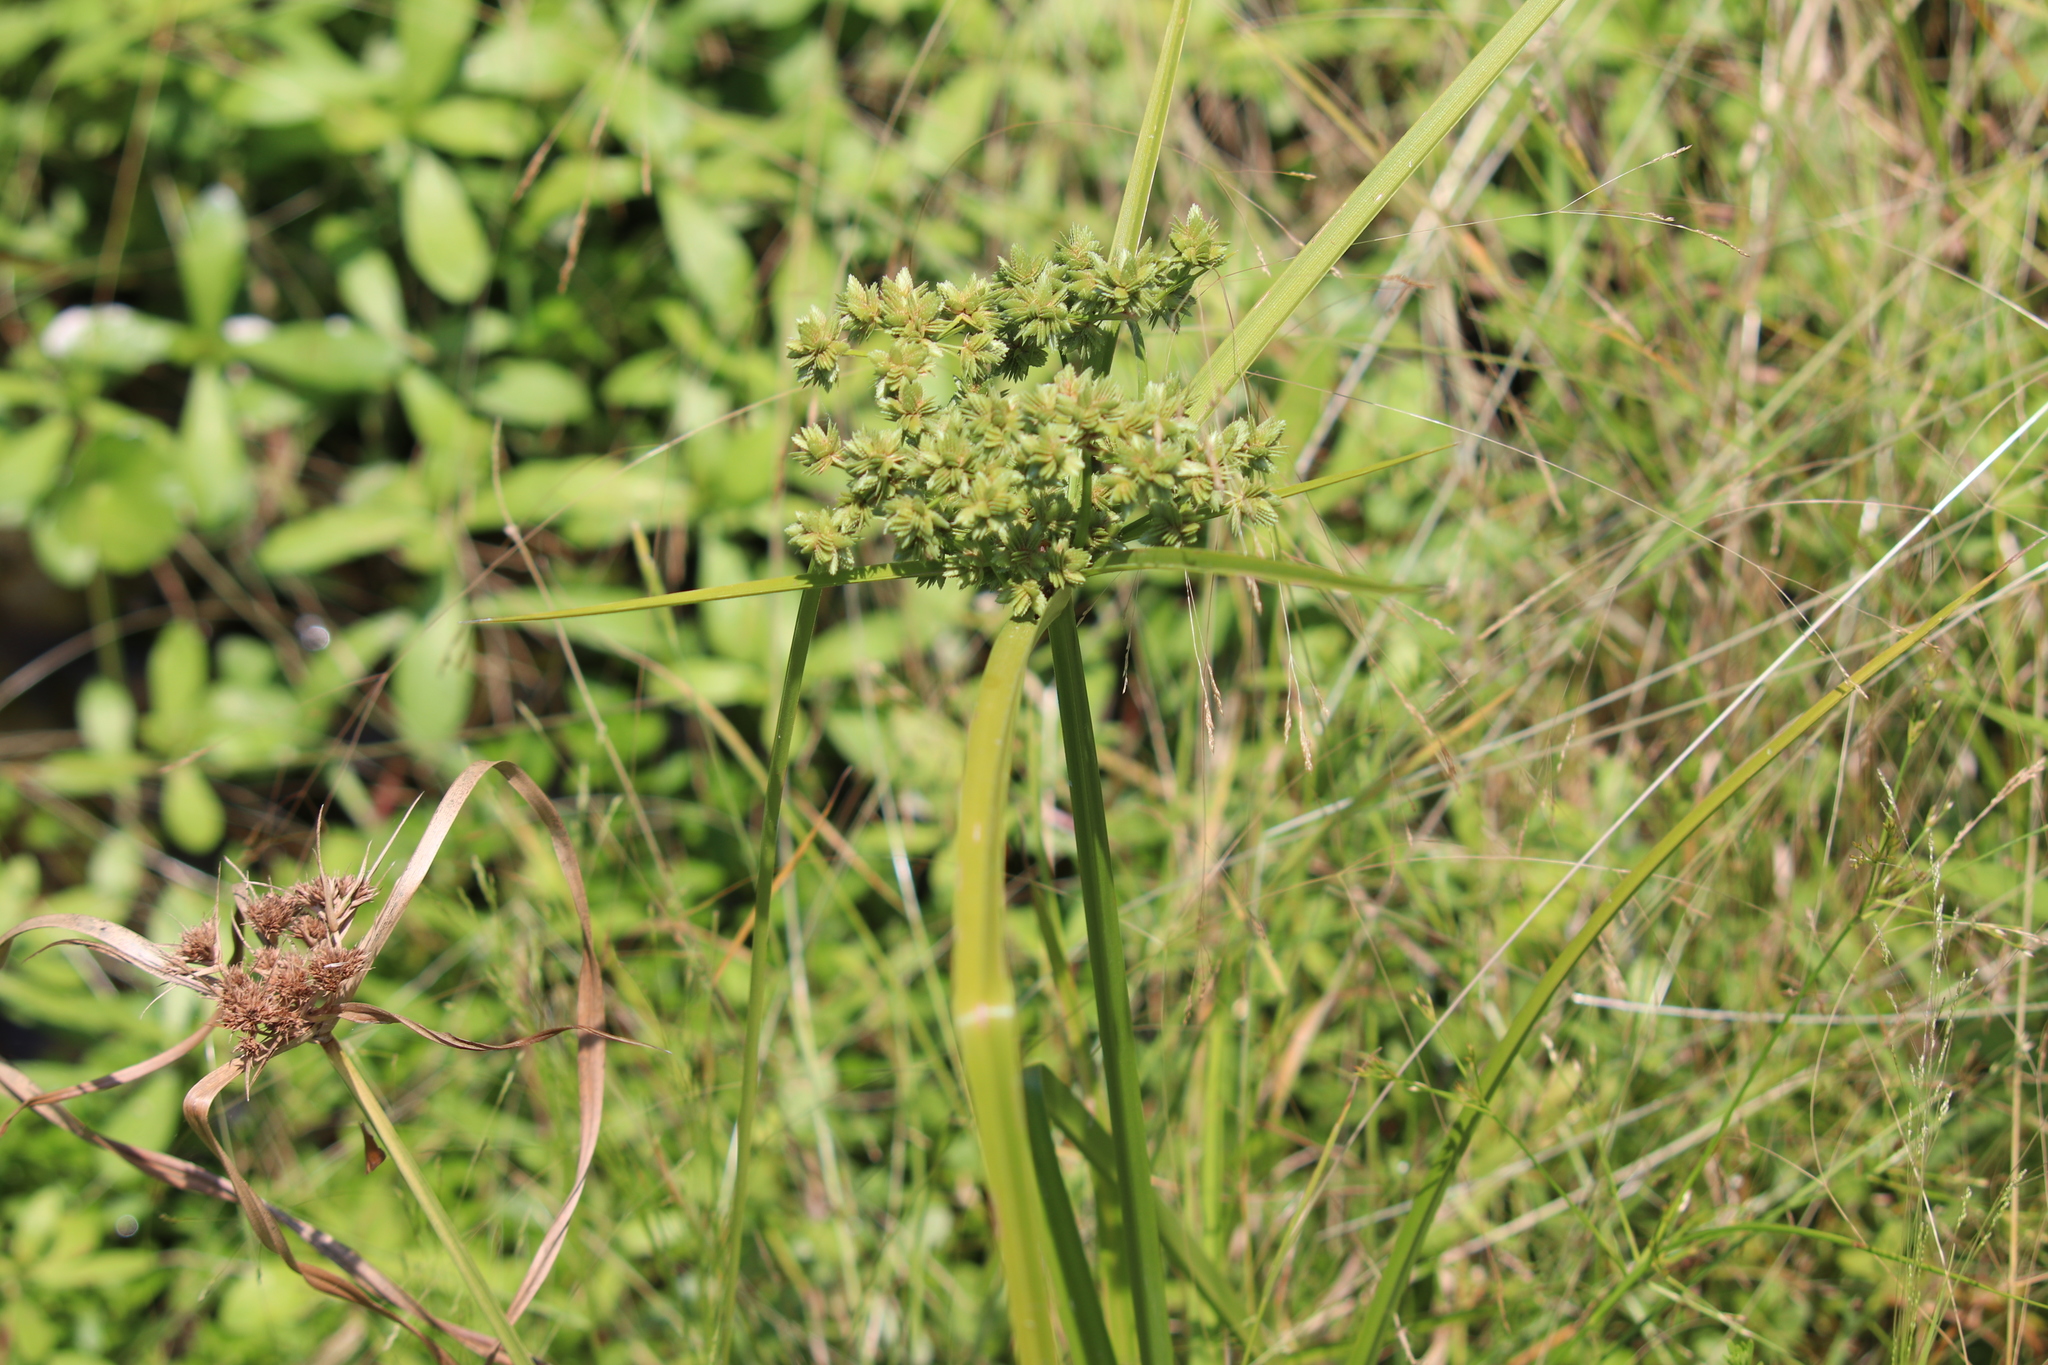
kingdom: Plantae
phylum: Tracheophyta
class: Liliopsida
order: Poales
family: Cyperaceae
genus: Cyperus
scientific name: Cyperus virens
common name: Green flatsedge
